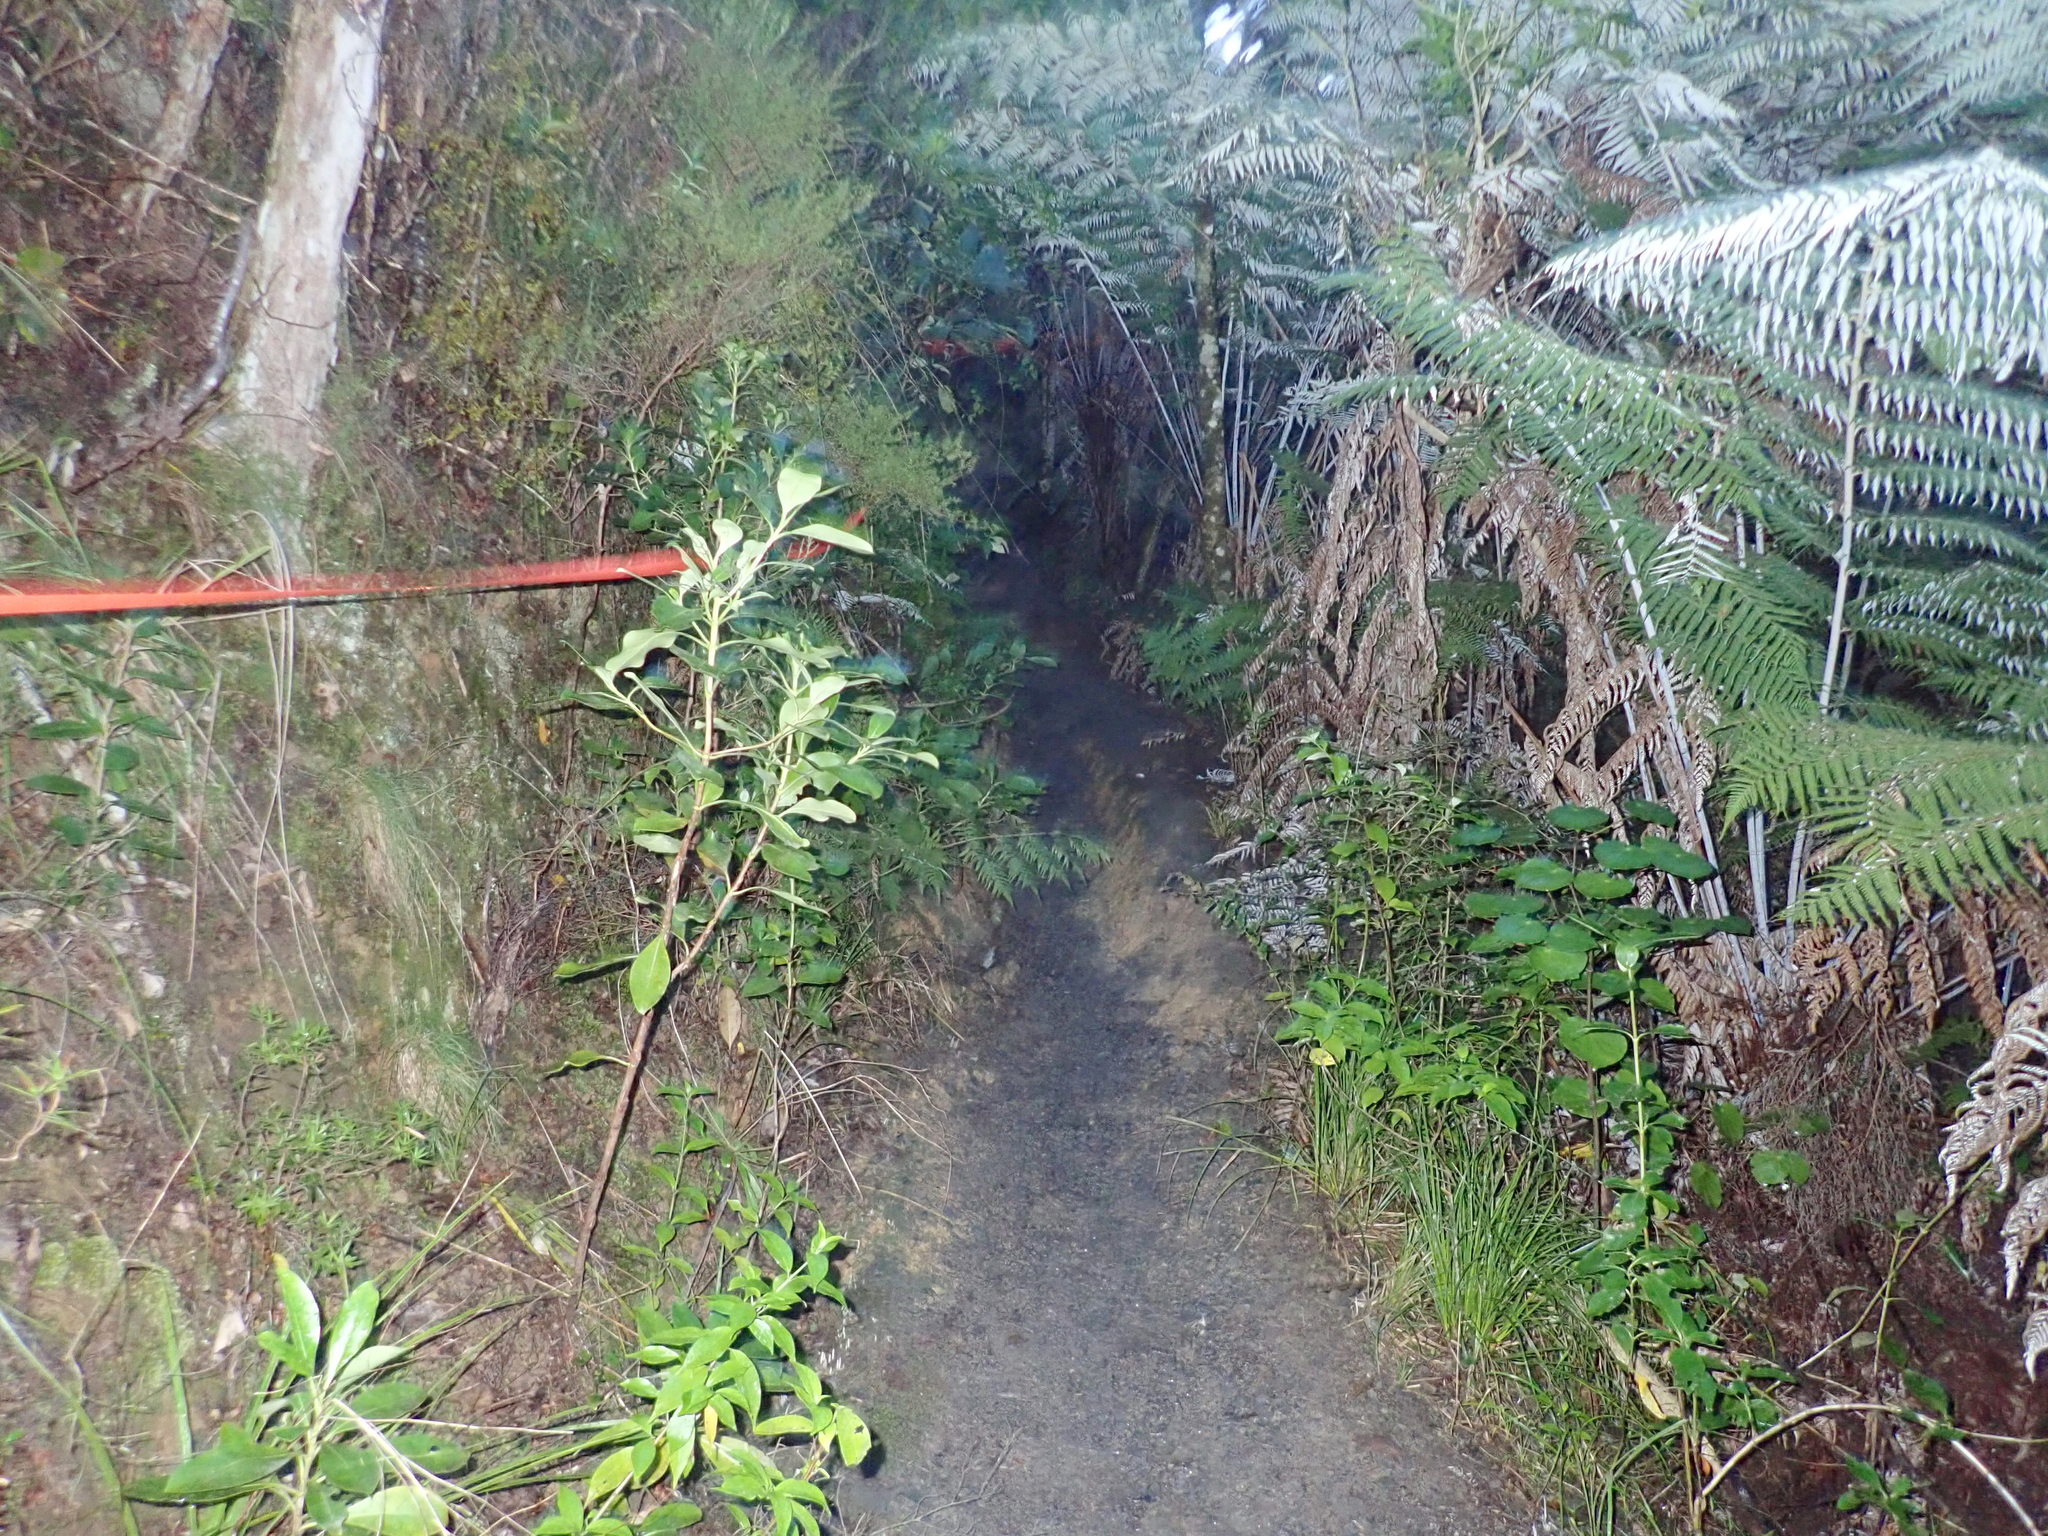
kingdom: Plantae
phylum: Tracheophyta
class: Polypodiopsida
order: Cyatheales
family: Cyatheaceae
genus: Alsophila
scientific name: Alsophila dealbata
